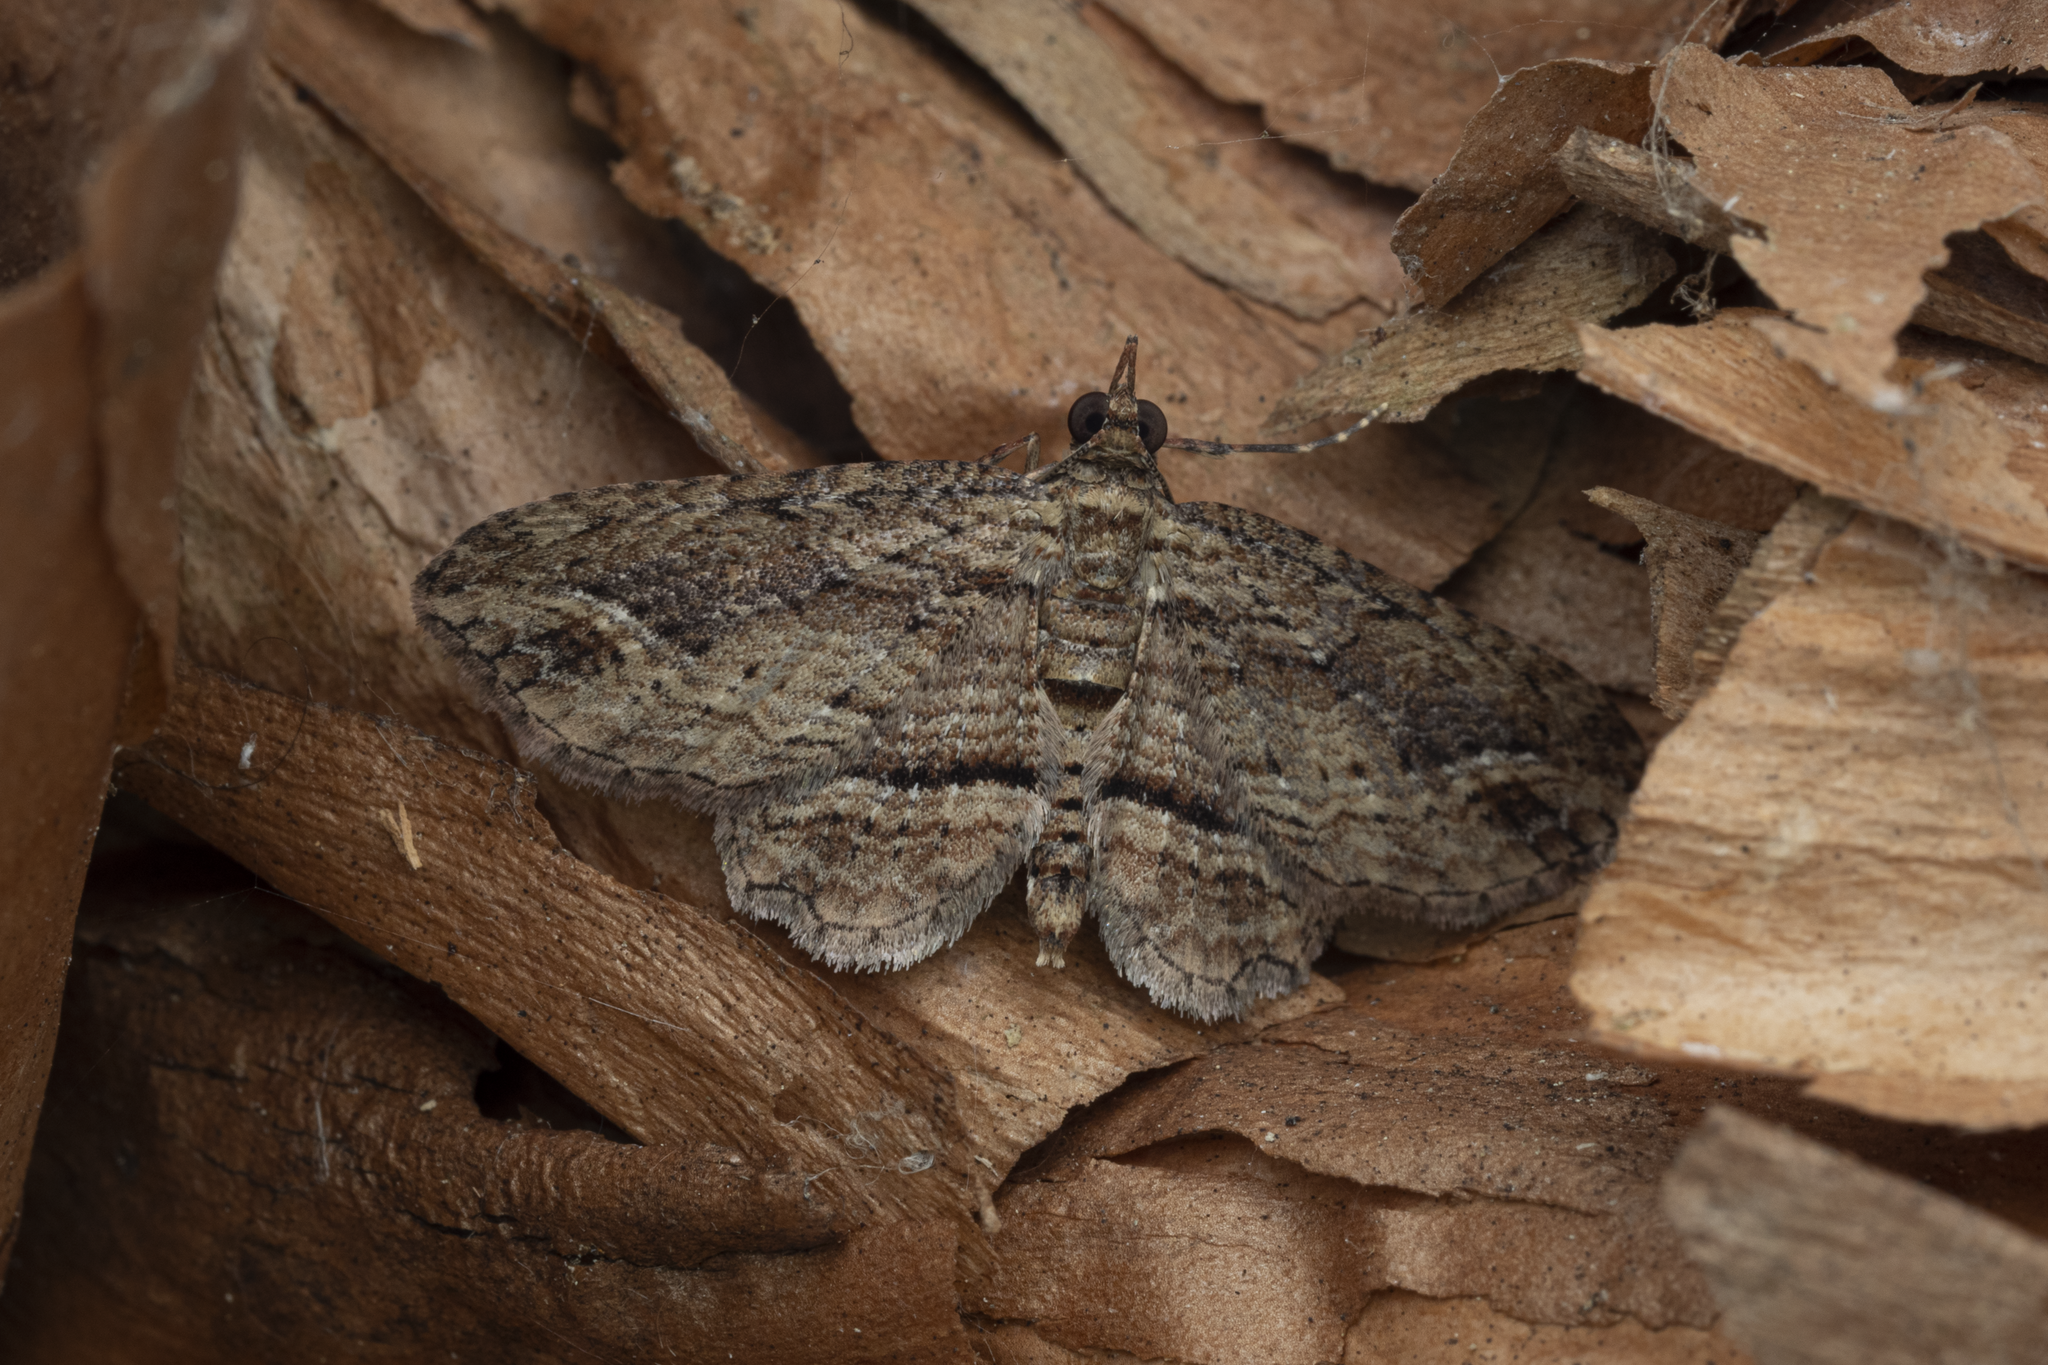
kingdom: Animalia
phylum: Arthropoda
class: Insecta
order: Lepidoptera
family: Geometridae
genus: Chloroclystis
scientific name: Chloroclystis filata
